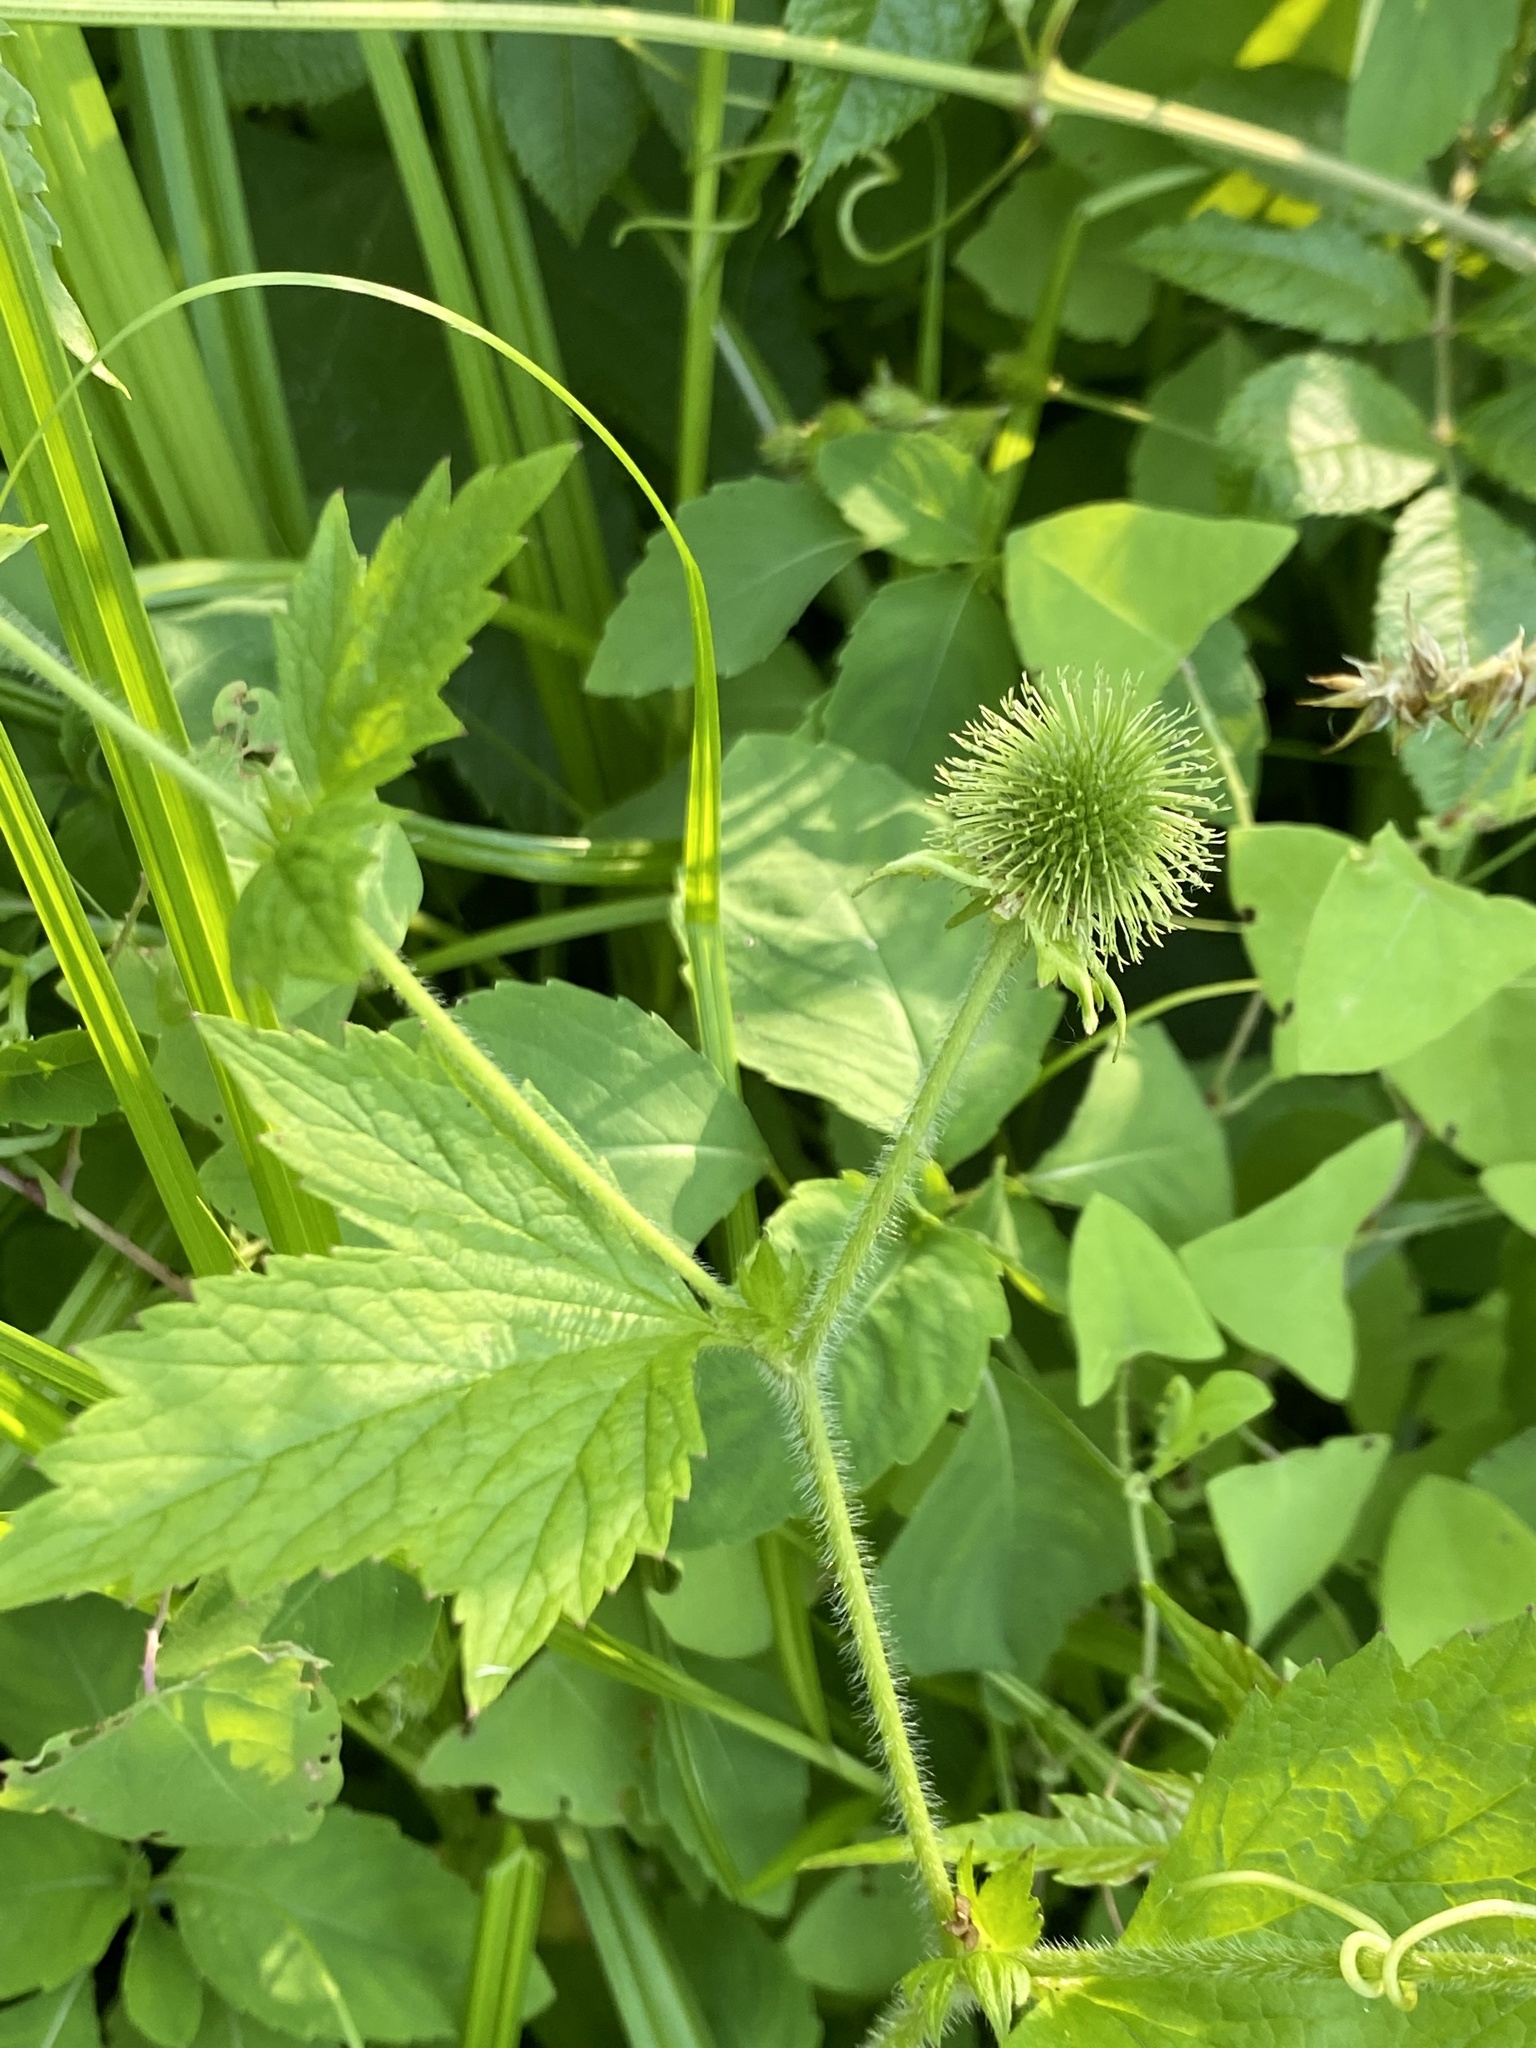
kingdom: Plantae
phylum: Tracheophyta
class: Magnoliopsida
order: Rosales
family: Rosaceae
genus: Geum
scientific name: Geum laciniatum
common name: Rough avens
